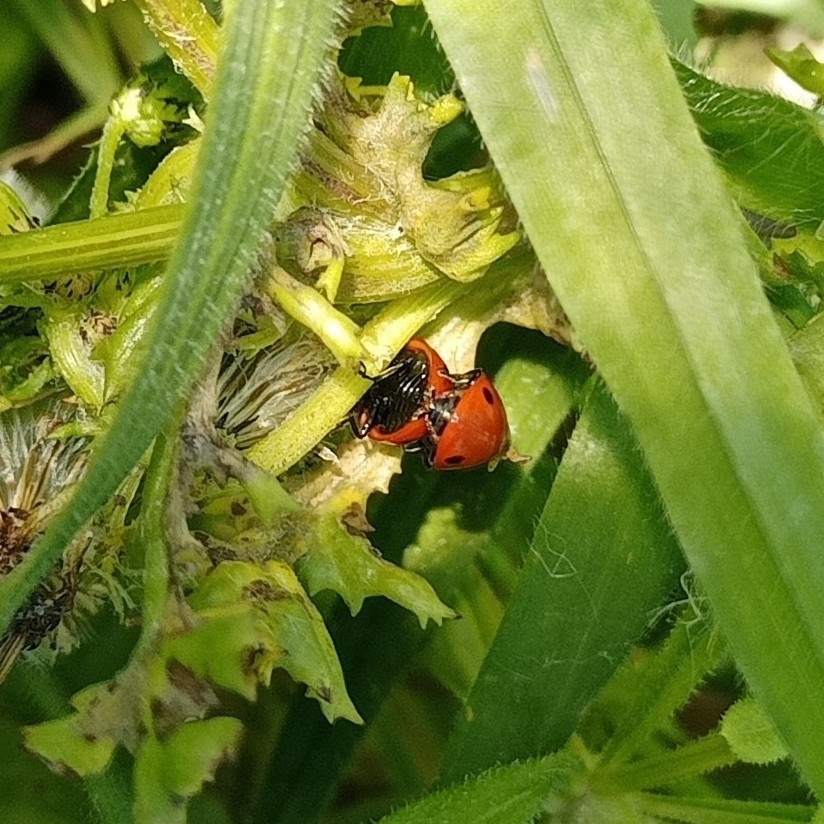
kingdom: Animalia
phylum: Arthropoda
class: Insecta
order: Coleoptera
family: Coccinellidae
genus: Coccinella
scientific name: Coccinella septempunctata
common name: Sevenspotted lady beetle
